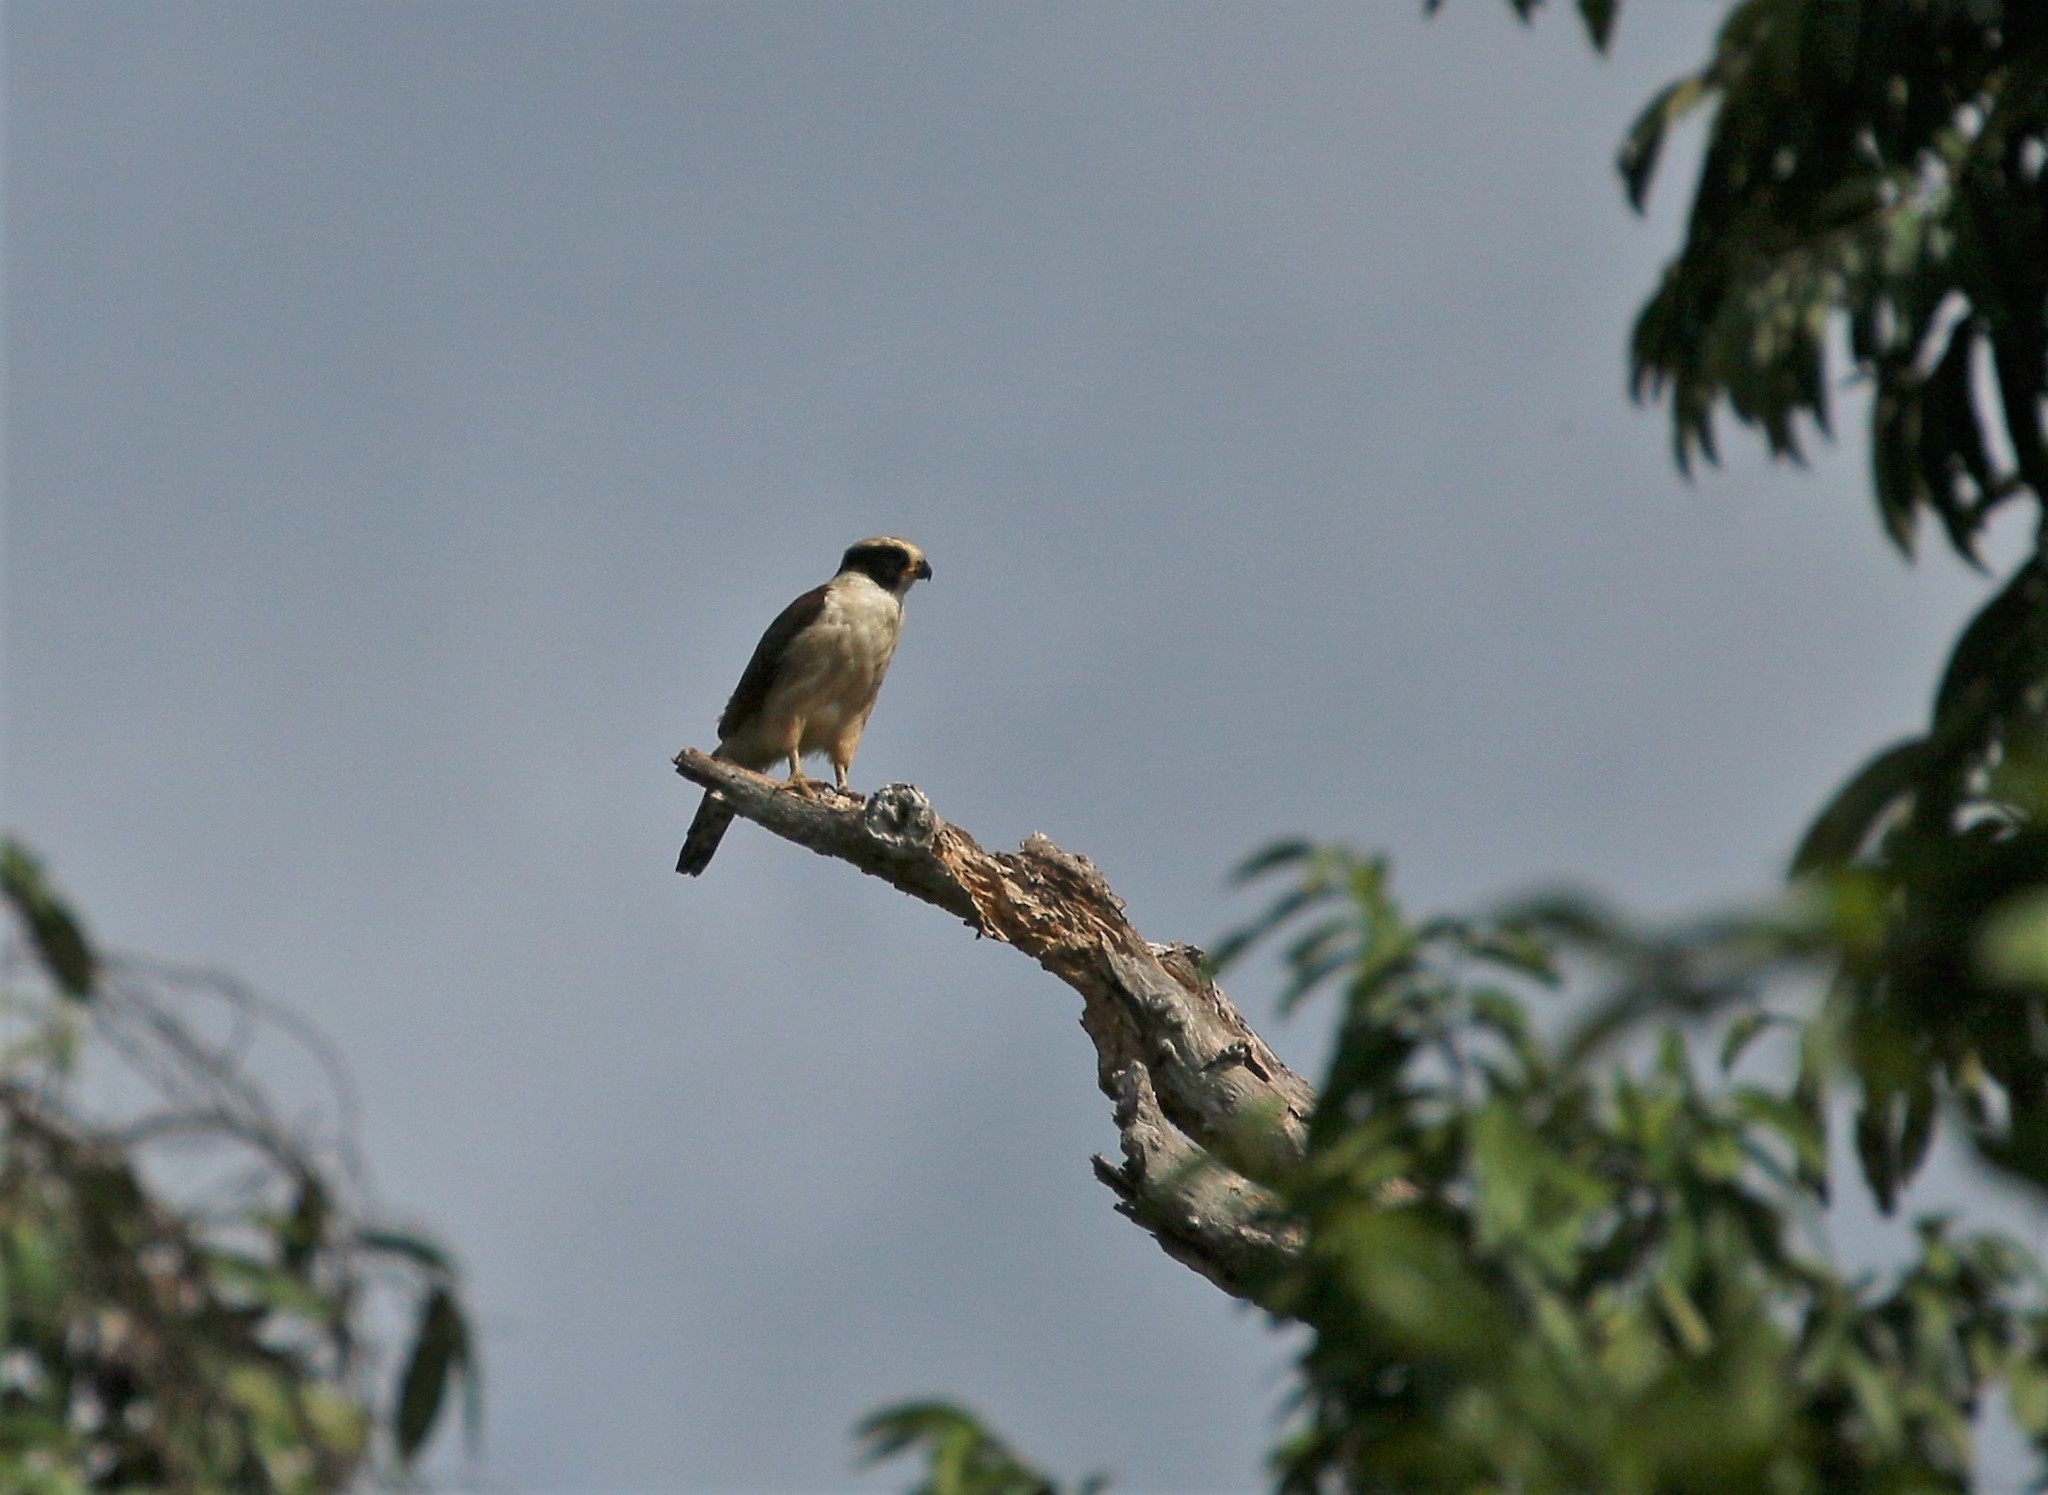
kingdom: Animalia
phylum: Chordata
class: Aves
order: Falconiformes
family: Falconidae
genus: Herpetotheres
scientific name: Herpetotheres cachinnans
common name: Laughing falcon
